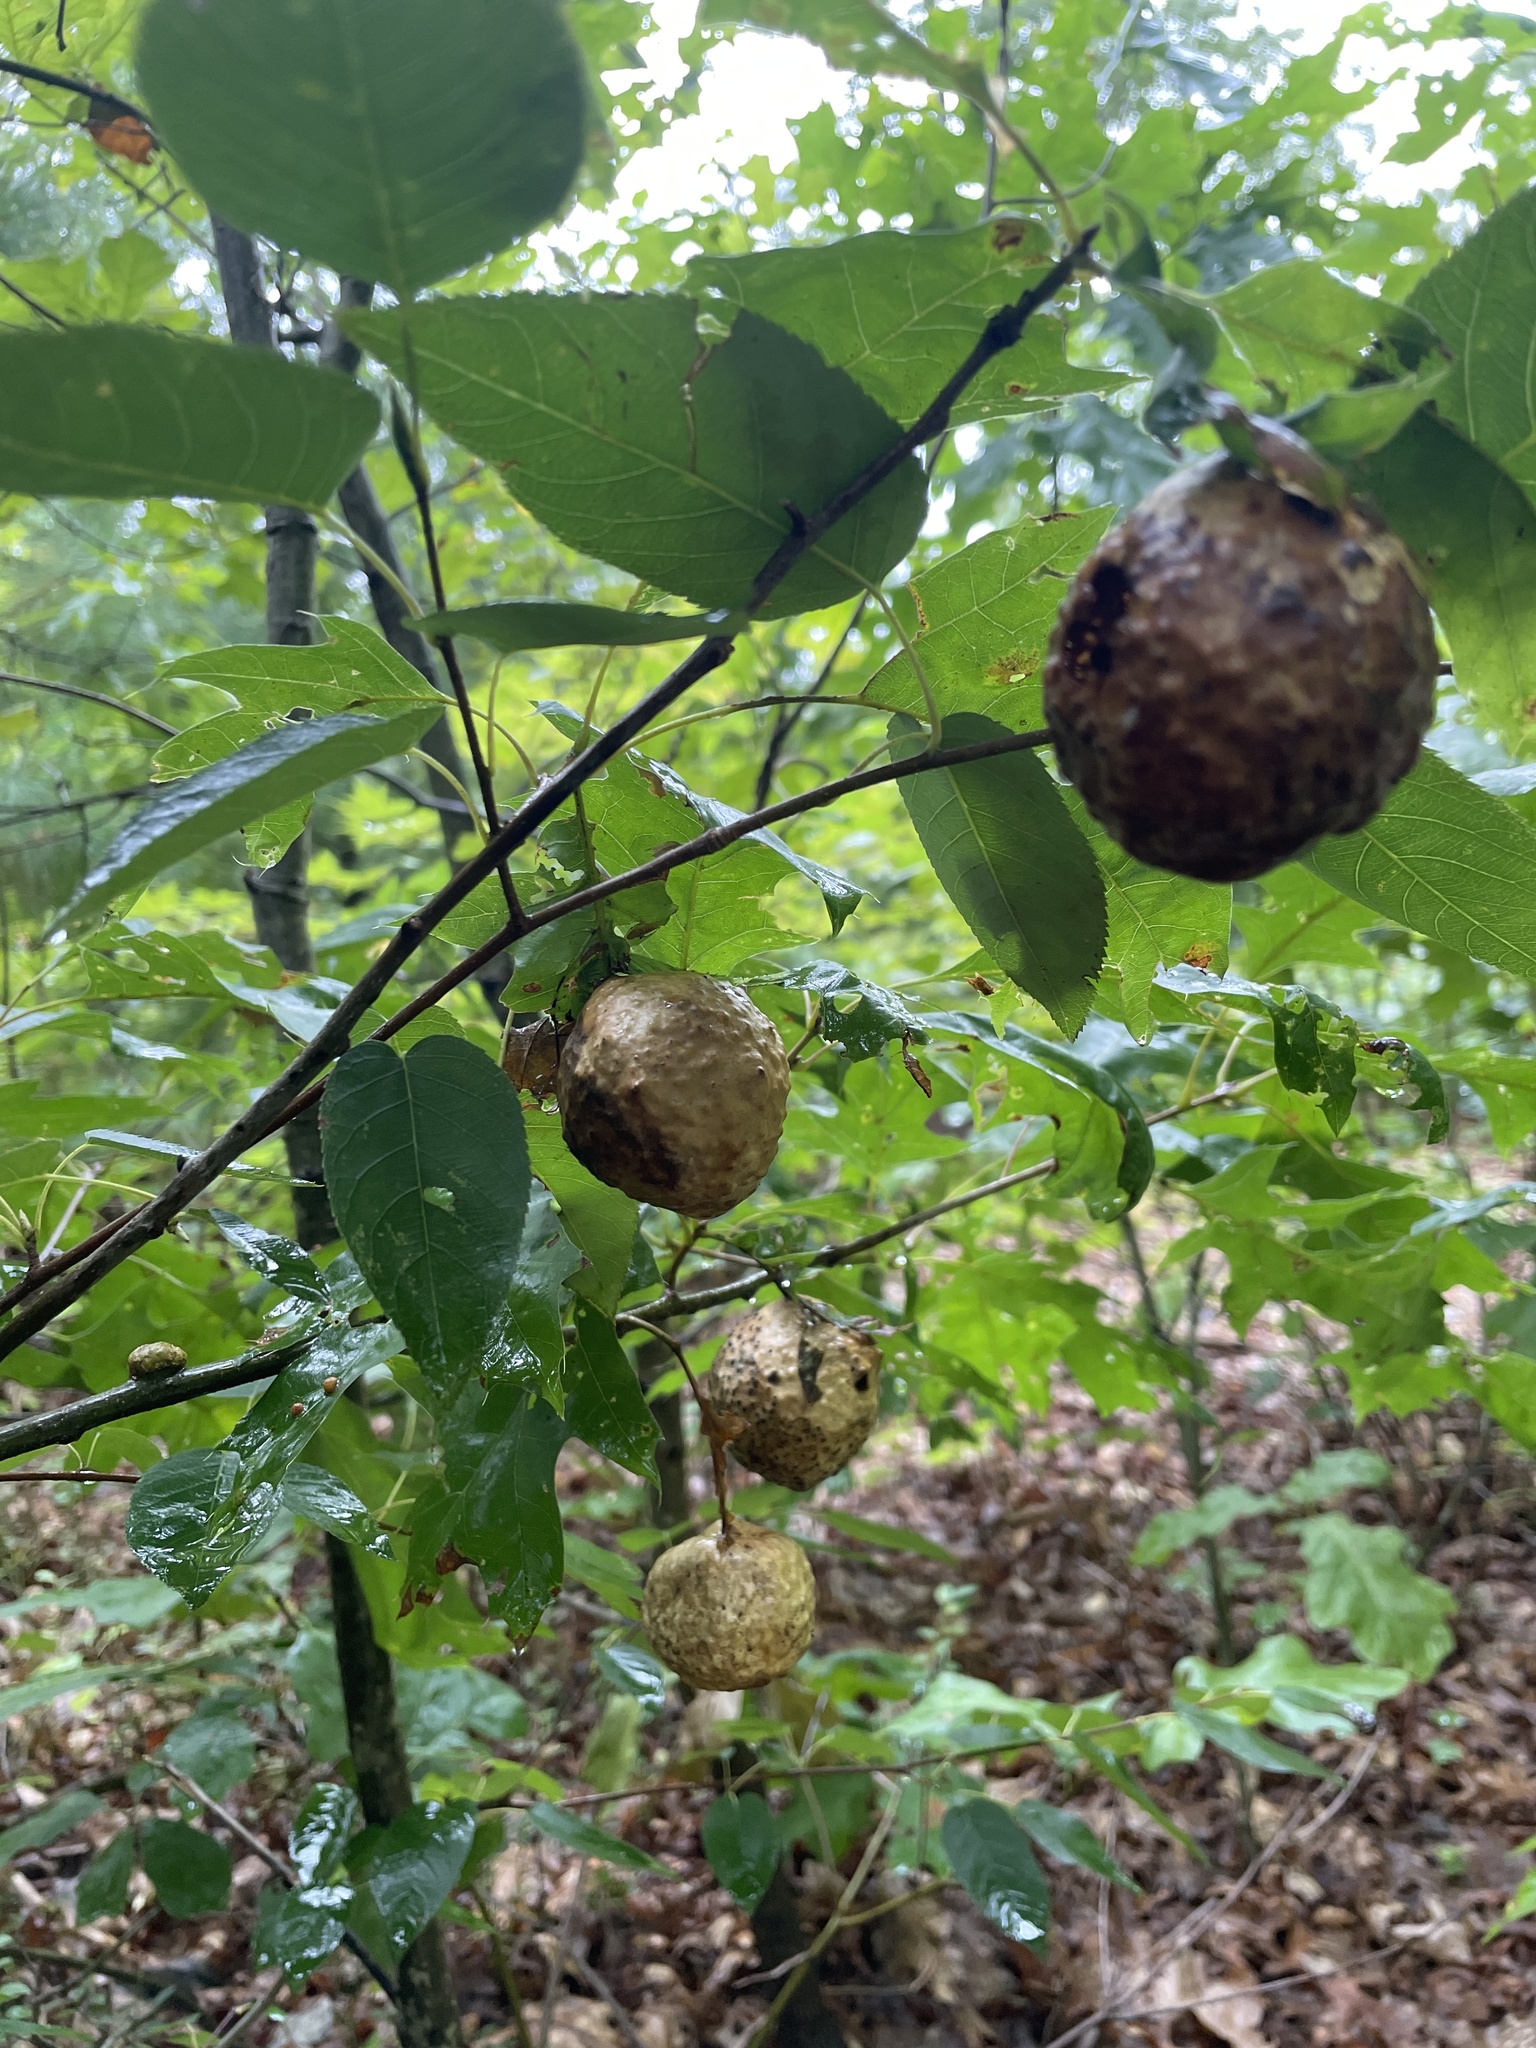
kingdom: Animalia
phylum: Arthropoda
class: Insecta
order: Hymenoptera
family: Cynipidae
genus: Amphibolips
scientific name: Amphibolips
